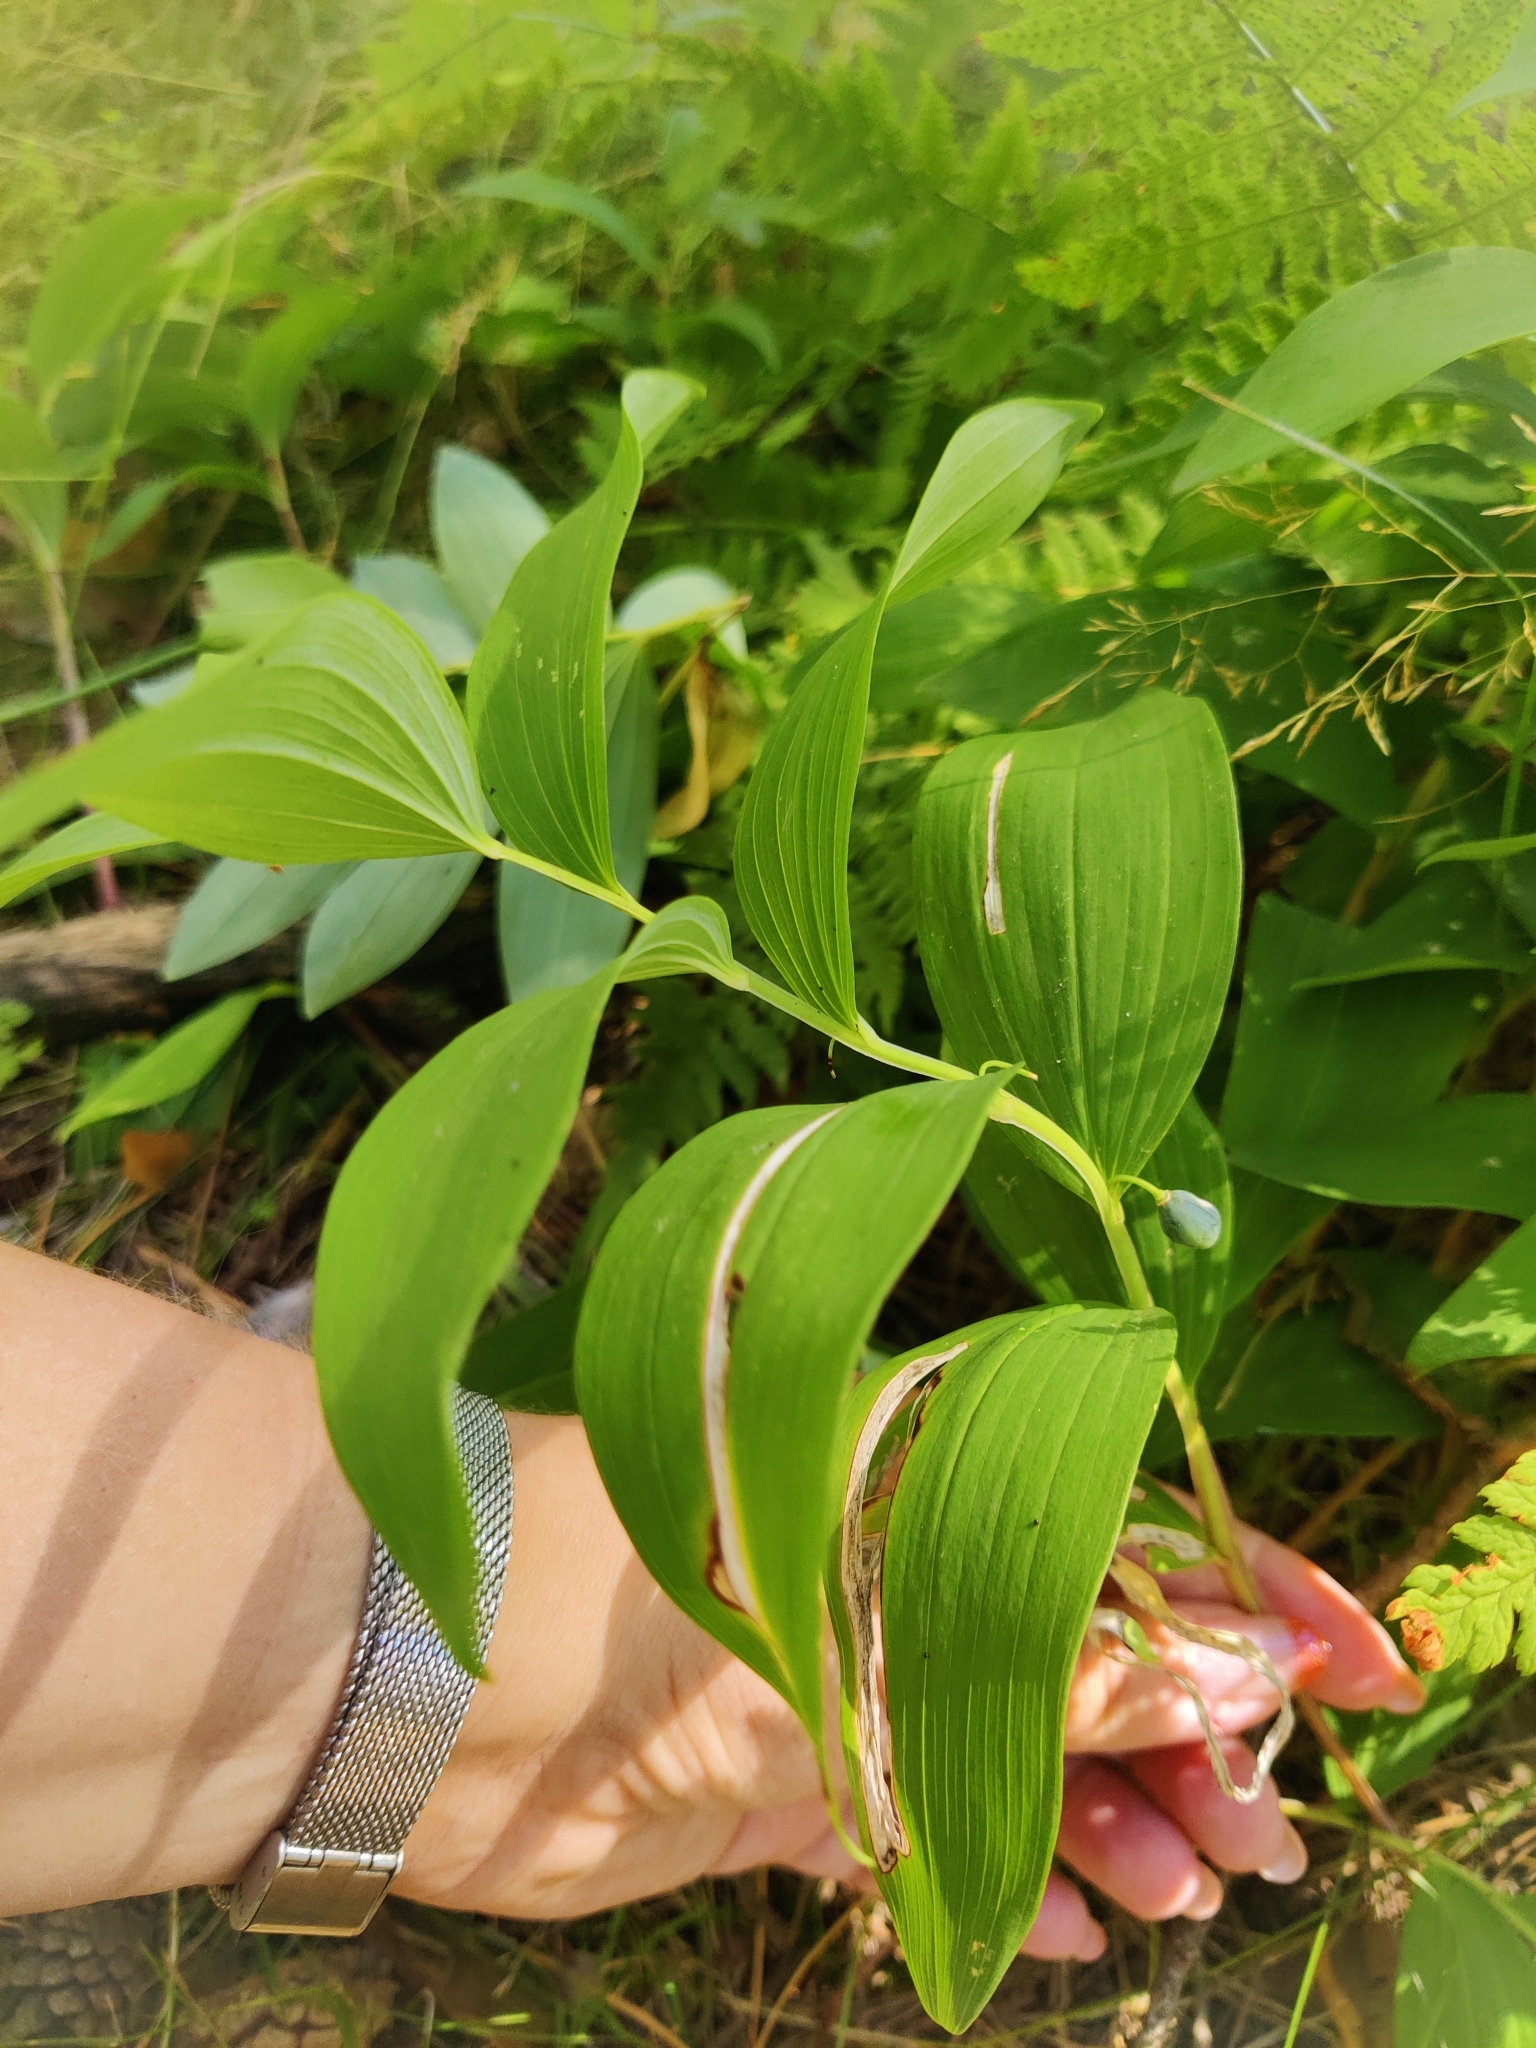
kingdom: Plantae
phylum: Tracheophyta
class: Liliopsida
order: Asparagales
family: Asparagaceae
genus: Polygonatum
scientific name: Polygonatum odoratum
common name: Angular solomon's-seal
